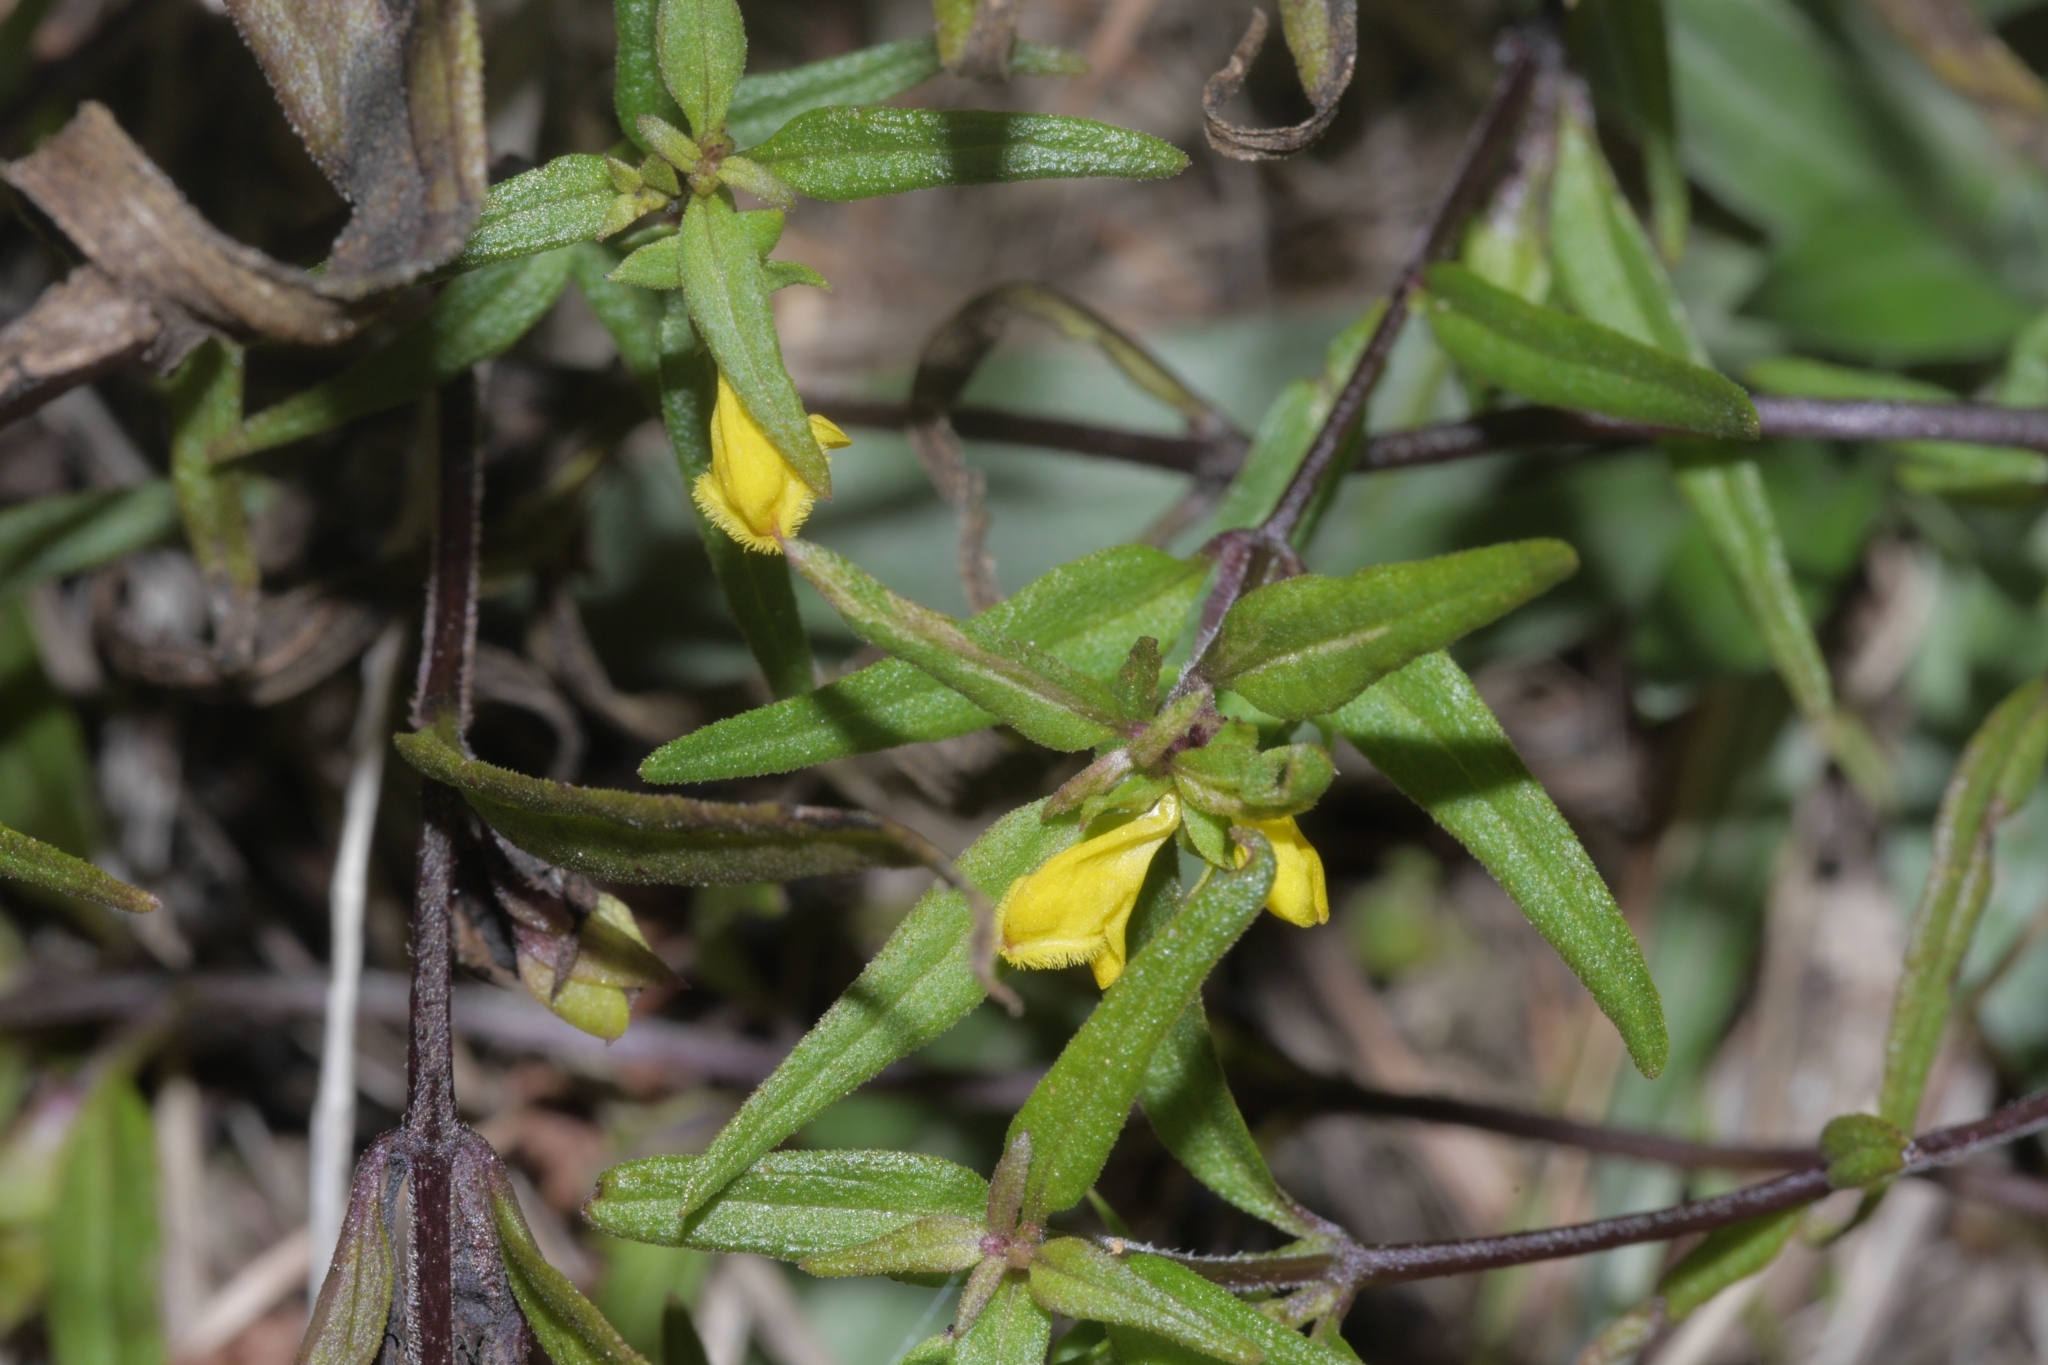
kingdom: Plantae
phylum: Tracheophyta
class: Magnoliopsida
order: Lamiales
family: Orobanchaceae
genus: Melampyrum
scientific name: Melampyrum sylvaticum
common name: Small cow-wheat
